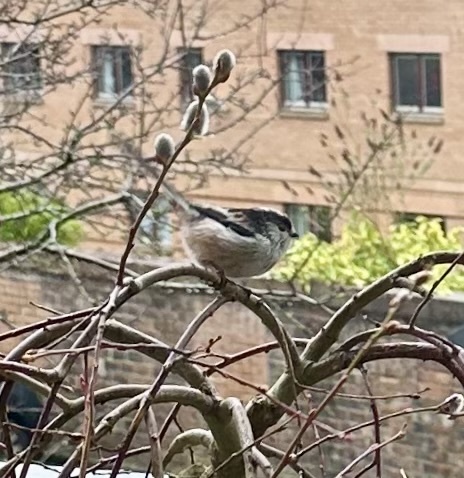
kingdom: Animalia
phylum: Chordata
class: Aves
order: Passeriformes
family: Aegithalidae
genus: Aegithalos
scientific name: Aegithalos caudatus
